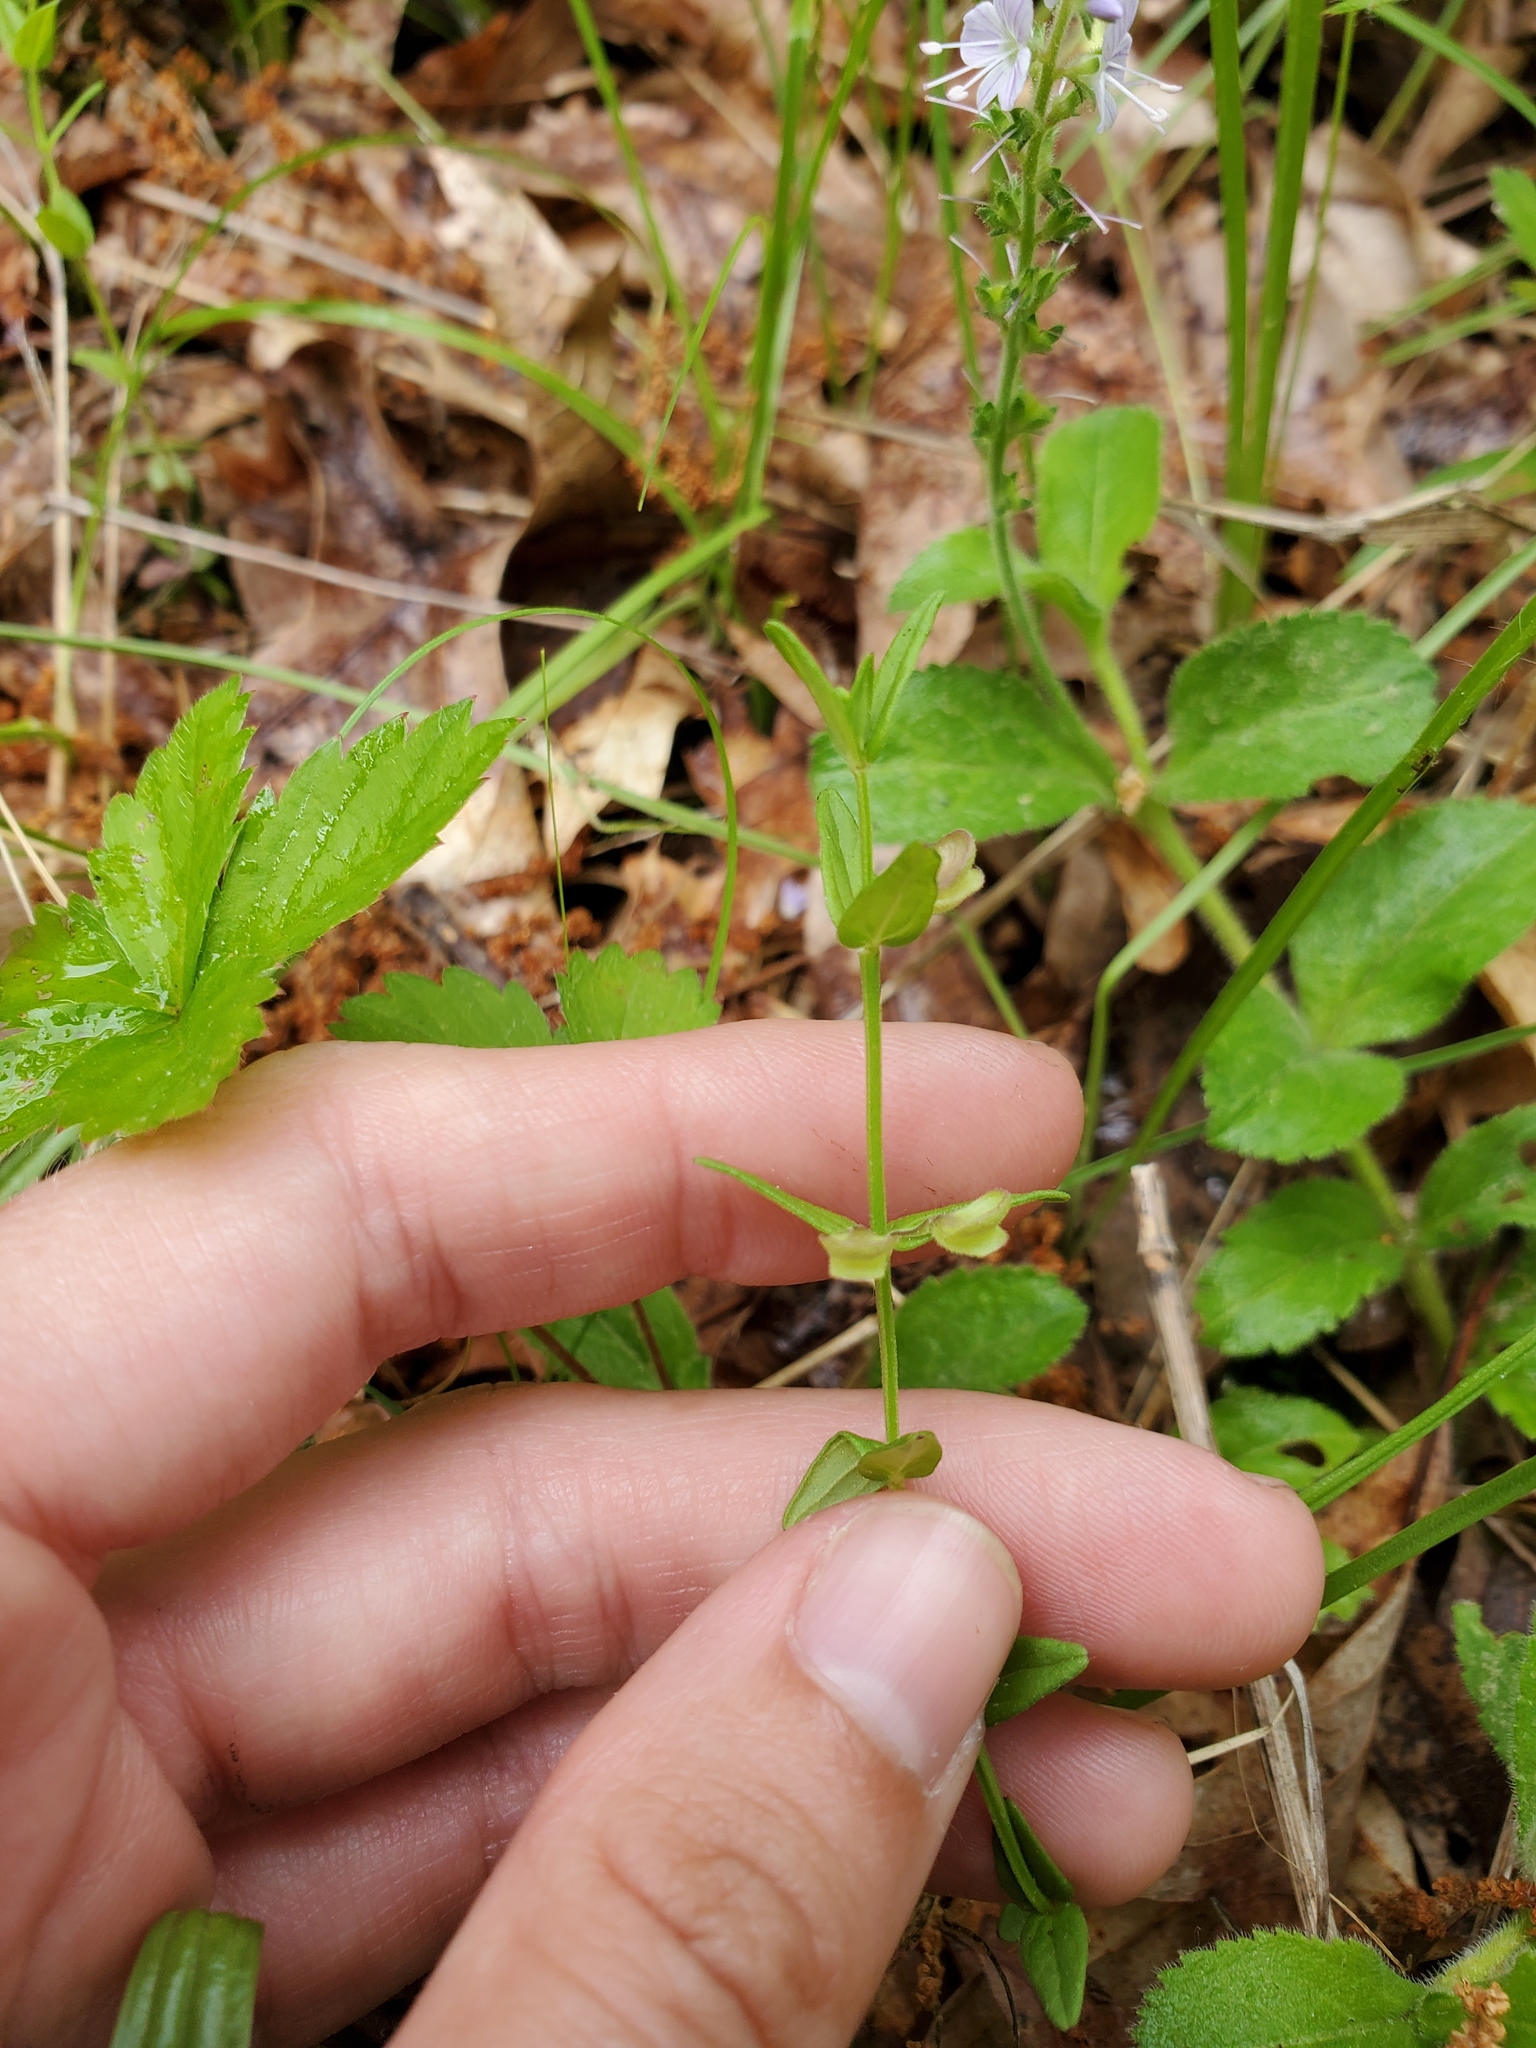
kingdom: Plantae
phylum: Tracheophyta
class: Magnoliopsida
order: Lamiales
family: Lamiaceae
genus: Scutellaria
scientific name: Scutellaria parvula
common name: Little scullcap
